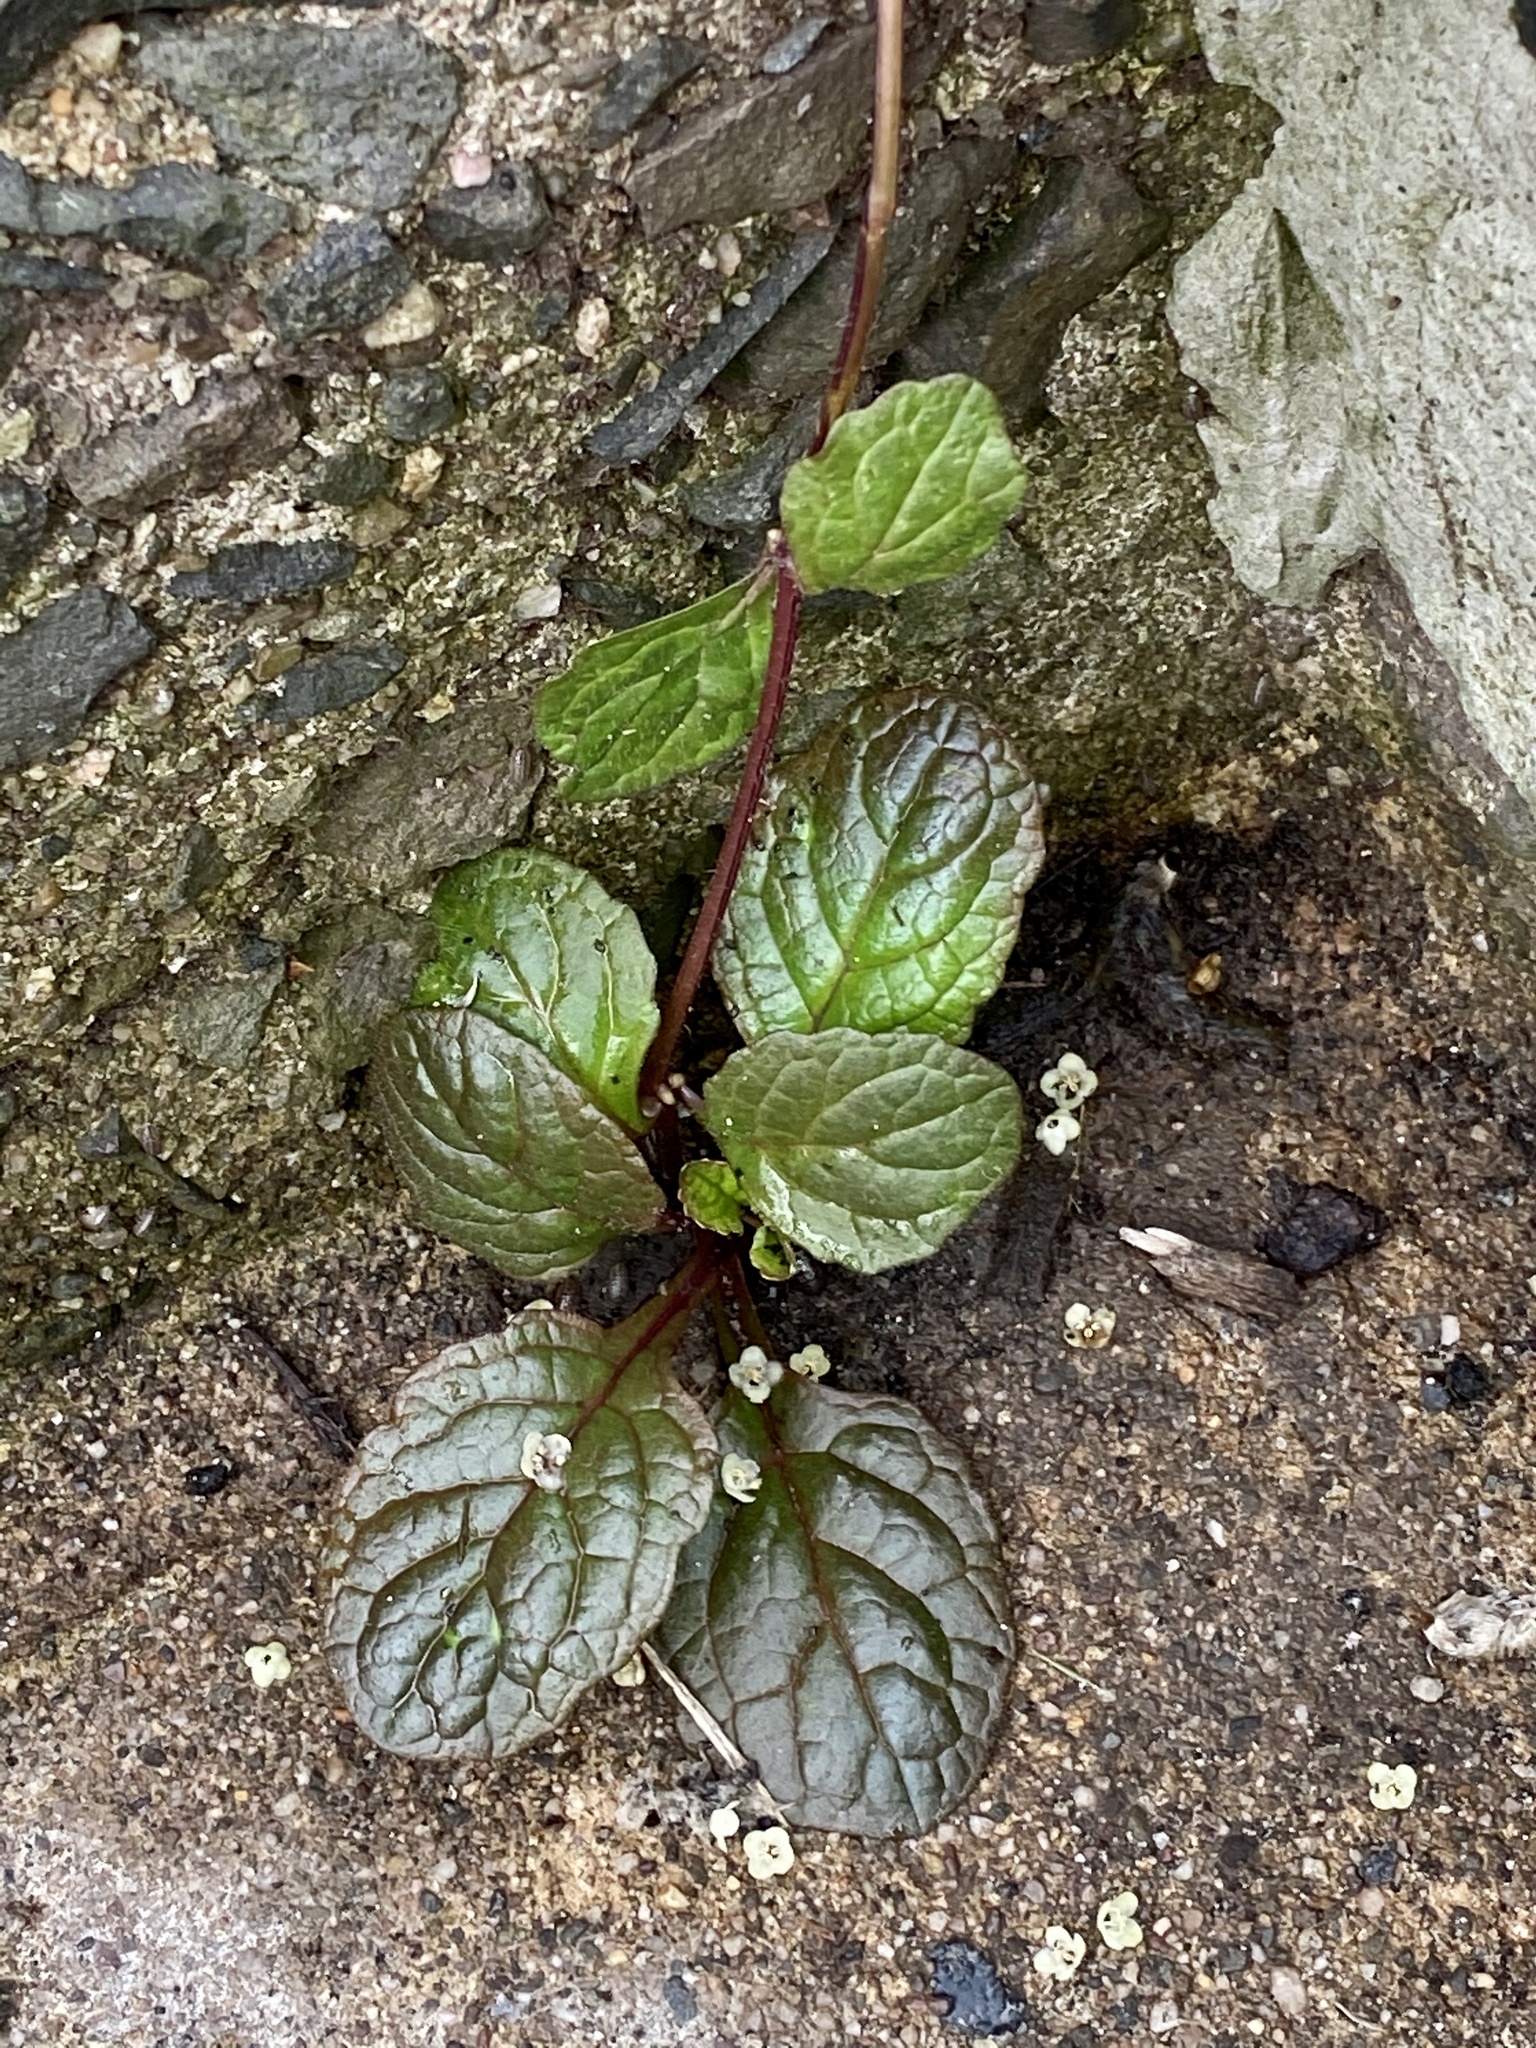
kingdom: Plantae
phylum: Tracheophyta
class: Magnoliopsida
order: Lamiales
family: Lamiaceae
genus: Ajuga
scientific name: Ajuga reptans
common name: Bugle
